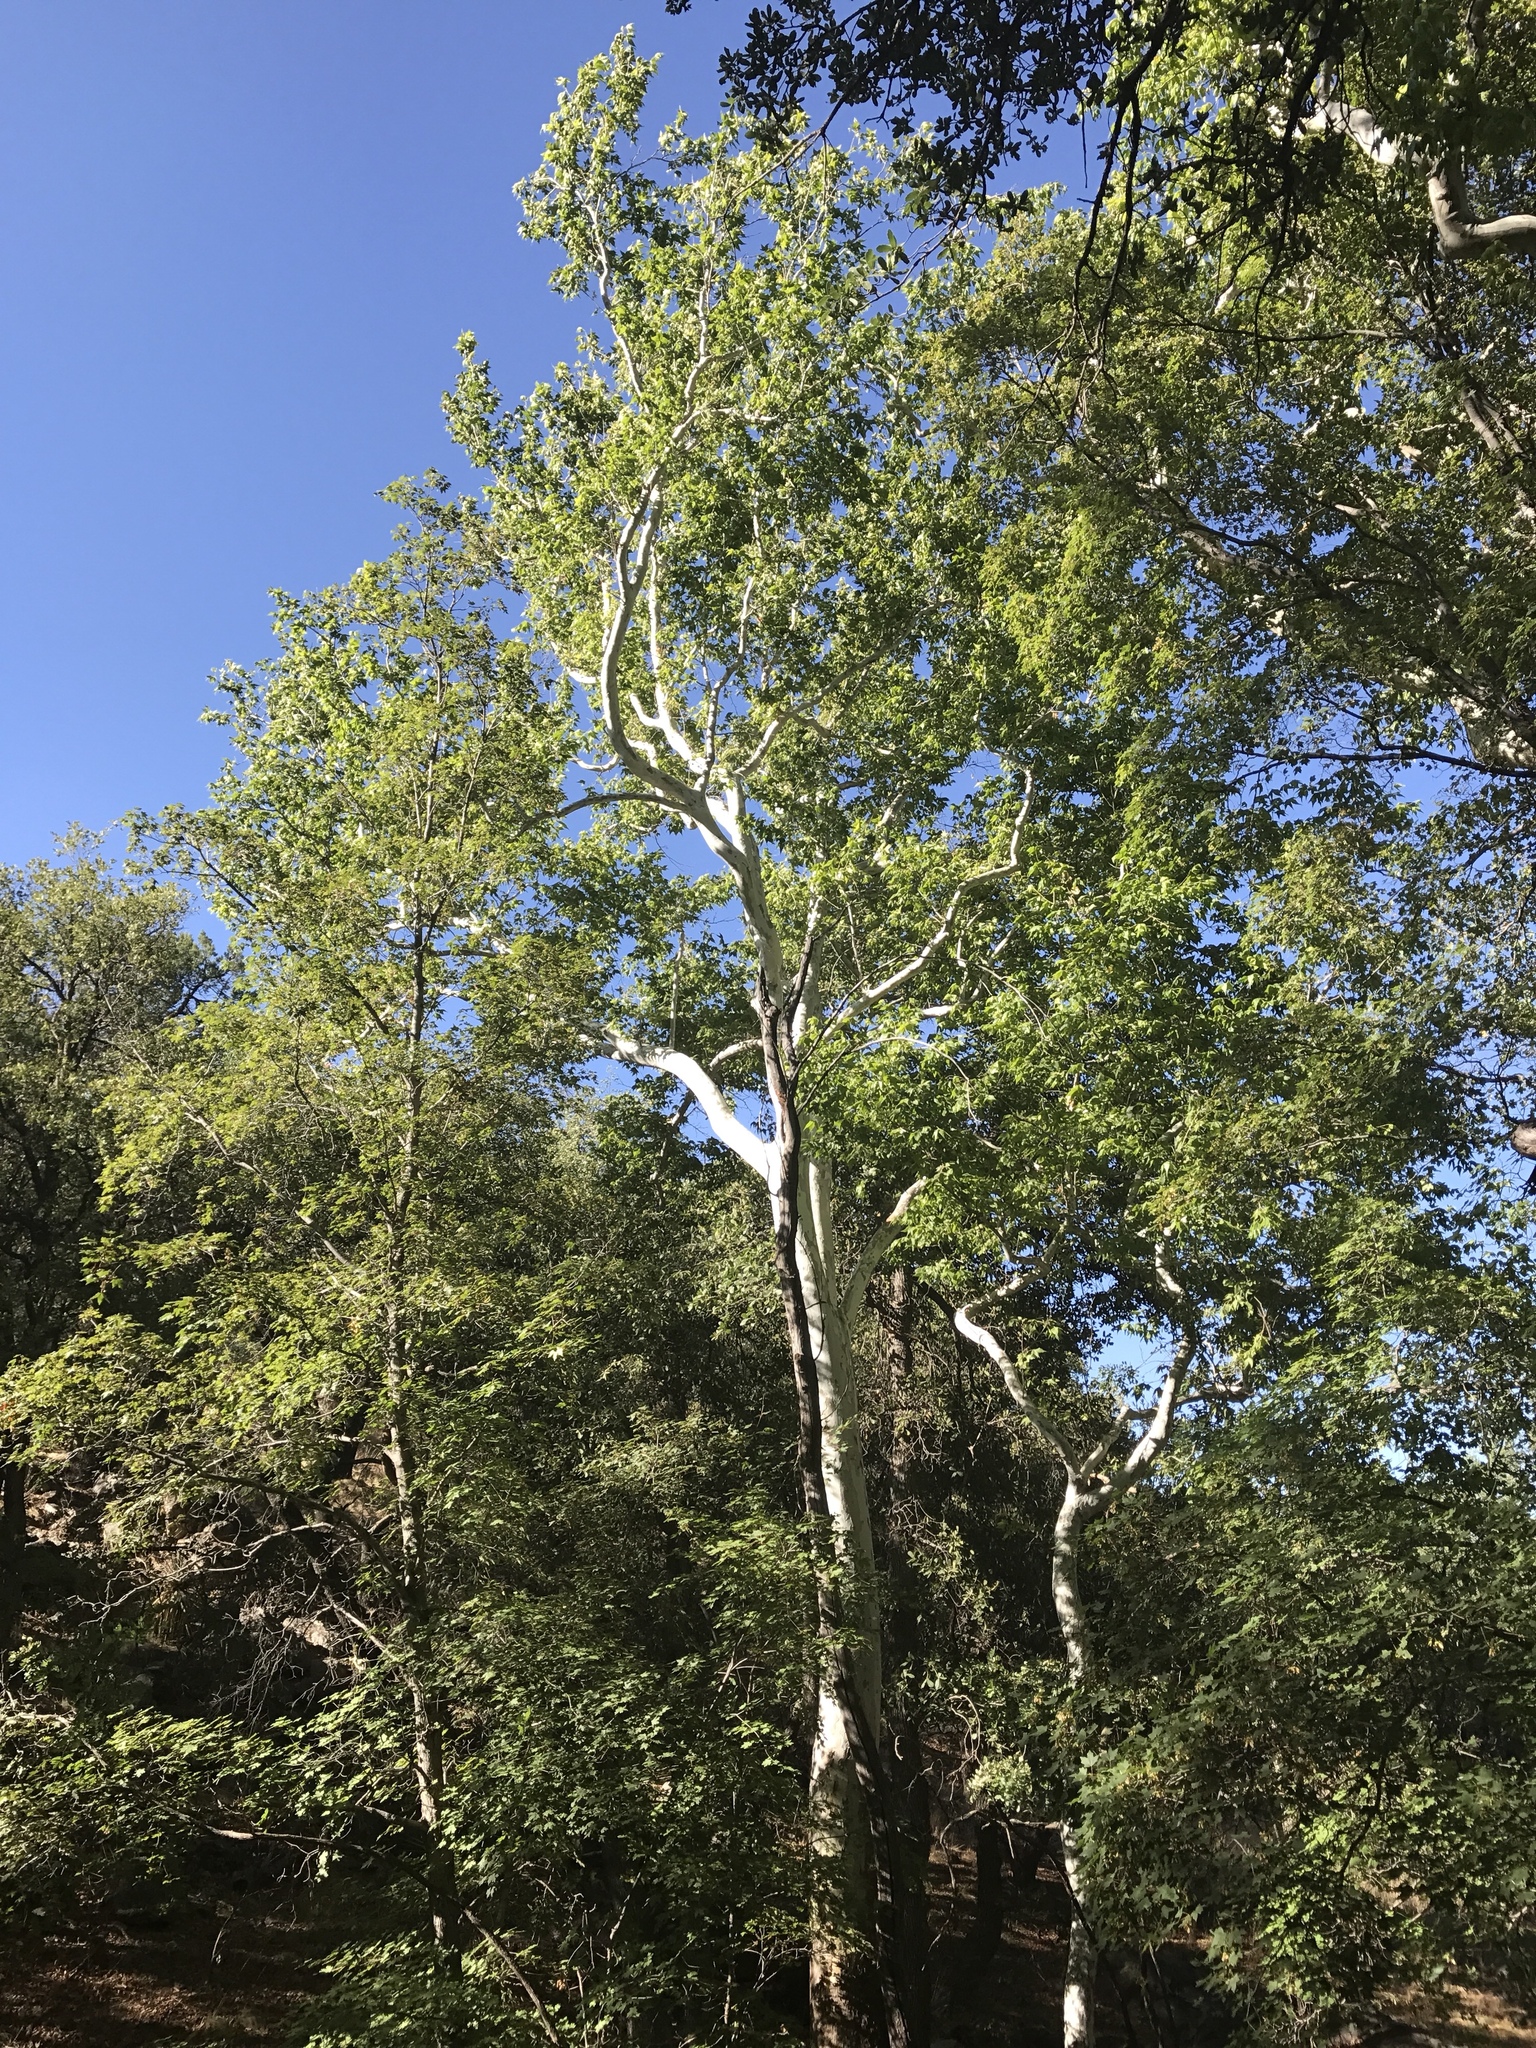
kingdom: Plantae
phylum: Tracheophyta
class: Magnoliopsida
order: Proteales
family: Platanaceae
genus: Platanus
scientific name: Platanus wrightii
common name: Arizona sycamore
